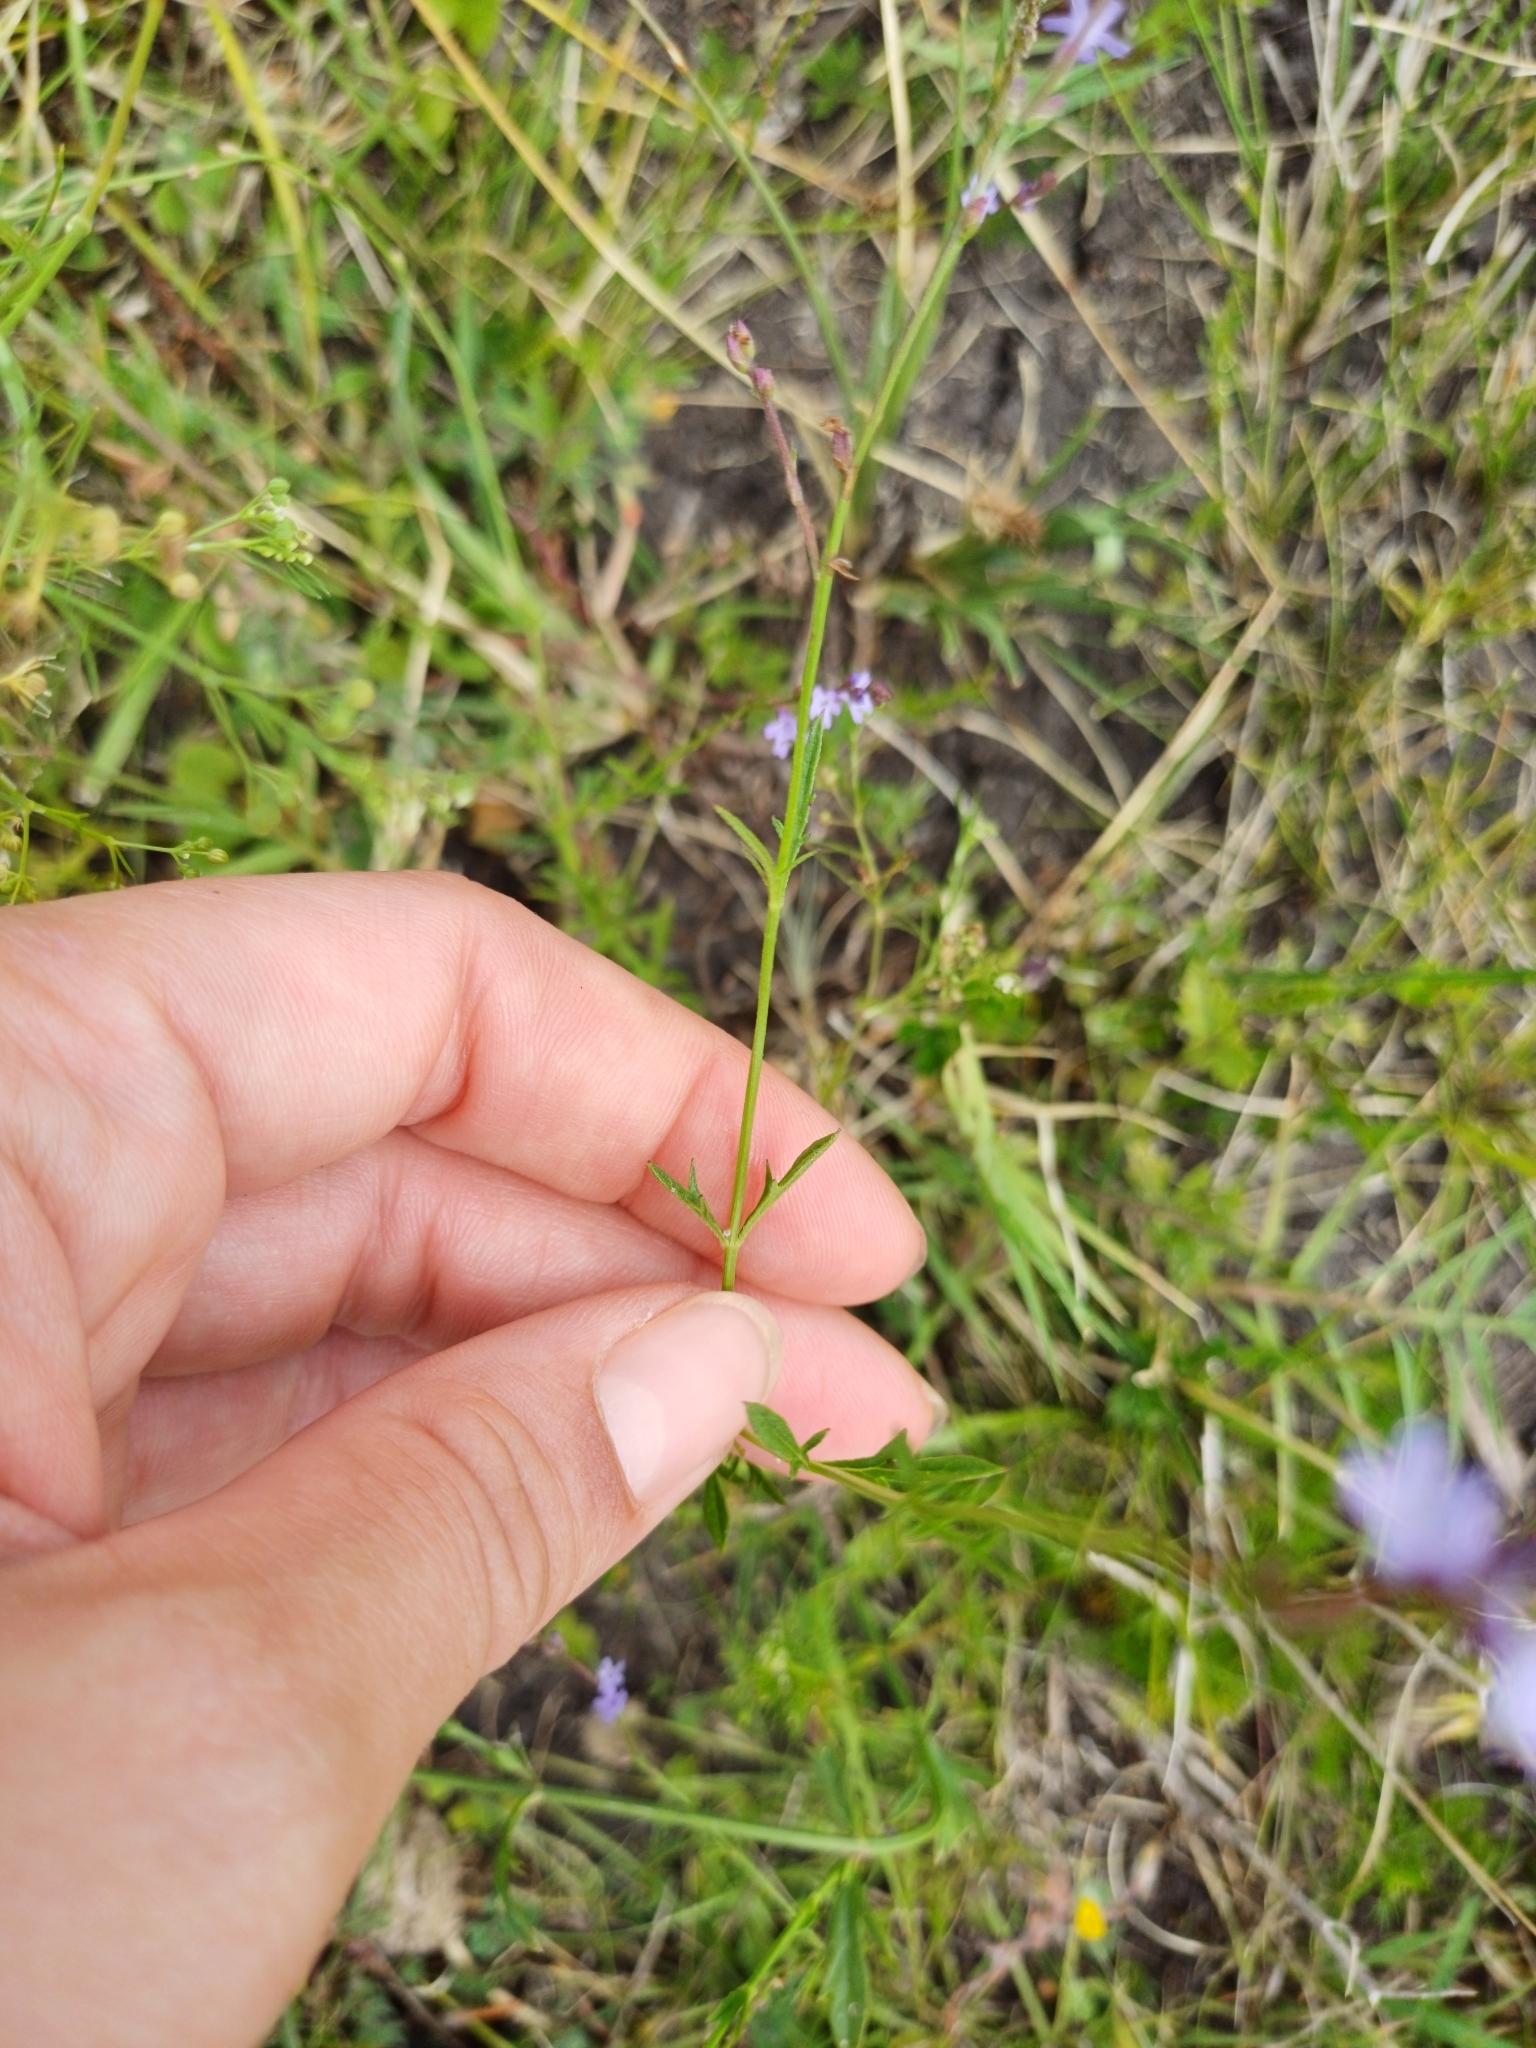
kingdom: Plantae
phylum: Tracheophyta
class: Magnoliopsida
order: Lamiales
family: Verbenaceae
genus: Verbena
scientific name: Verbena gracilescens
